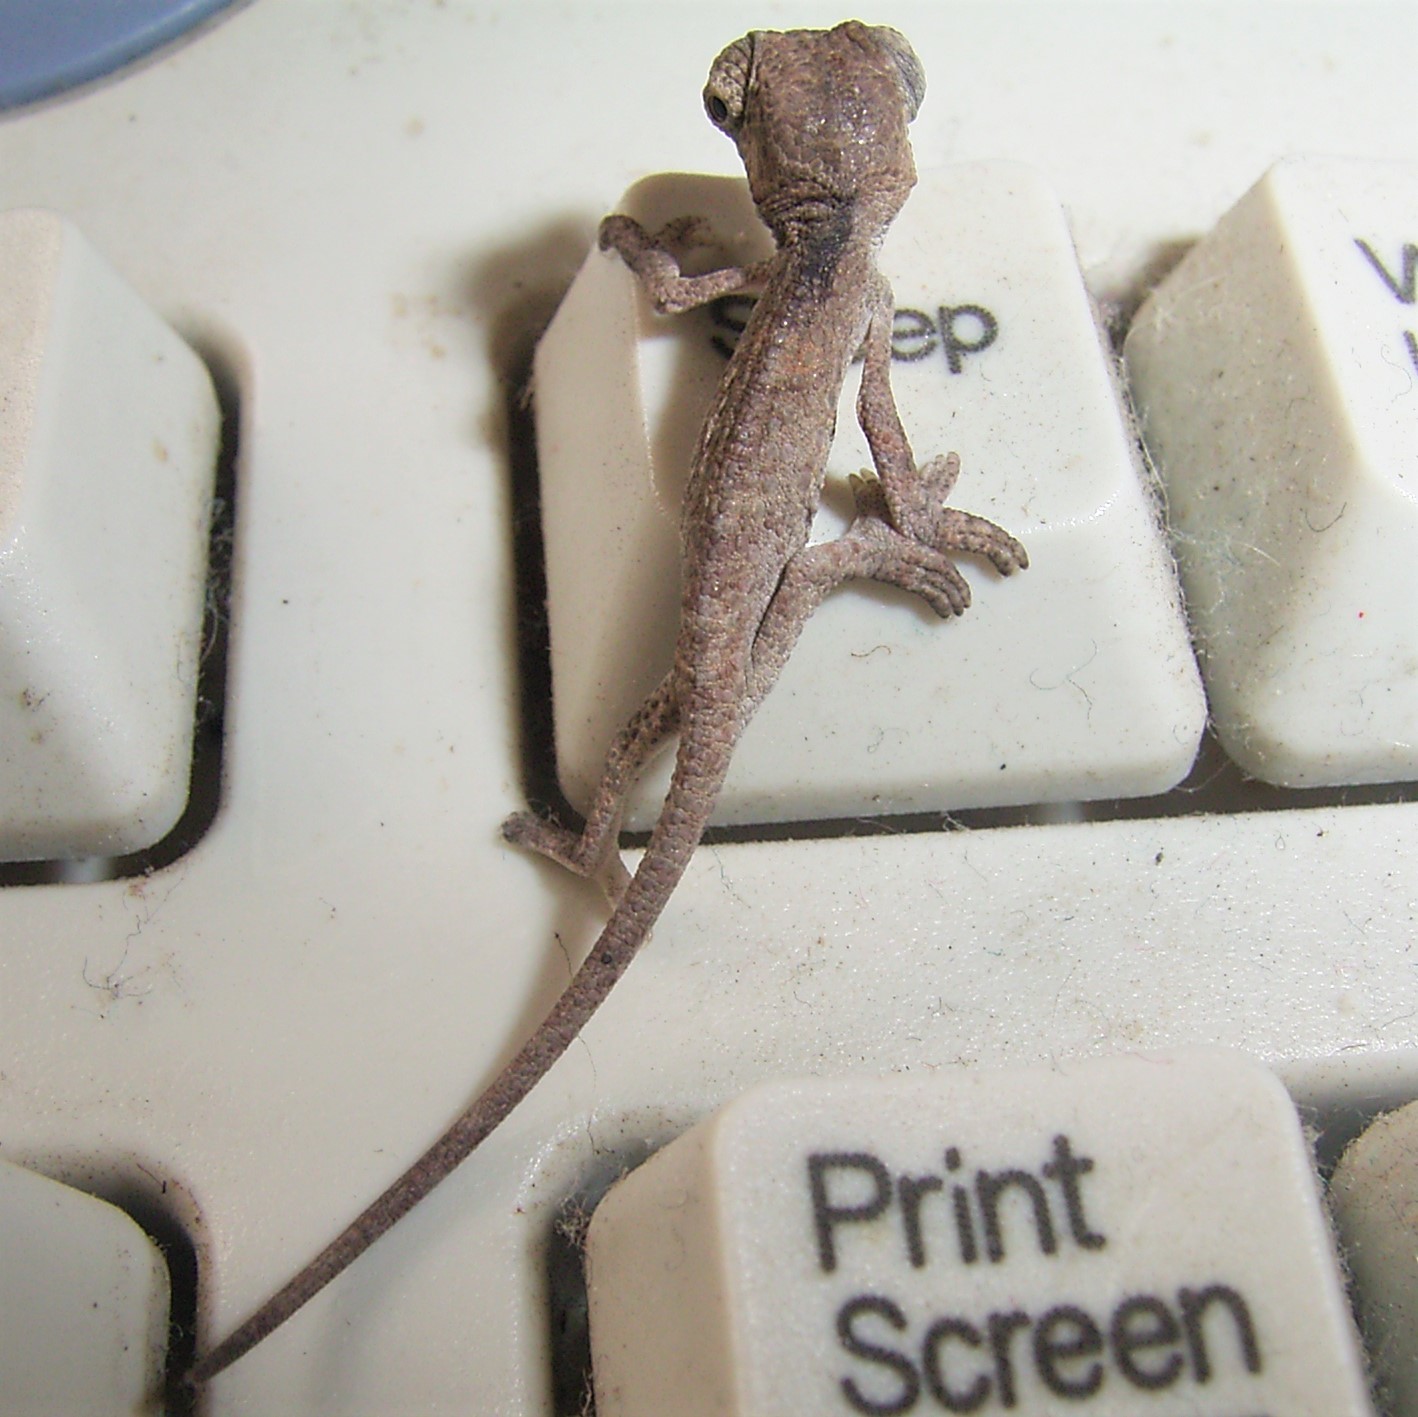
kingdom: Animalia
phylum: Chordata
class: Squamata
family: Chamaeleonidae
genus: Bradypodion
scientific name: Bradypodion damaranum
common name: Knysna dwarf chameleon
